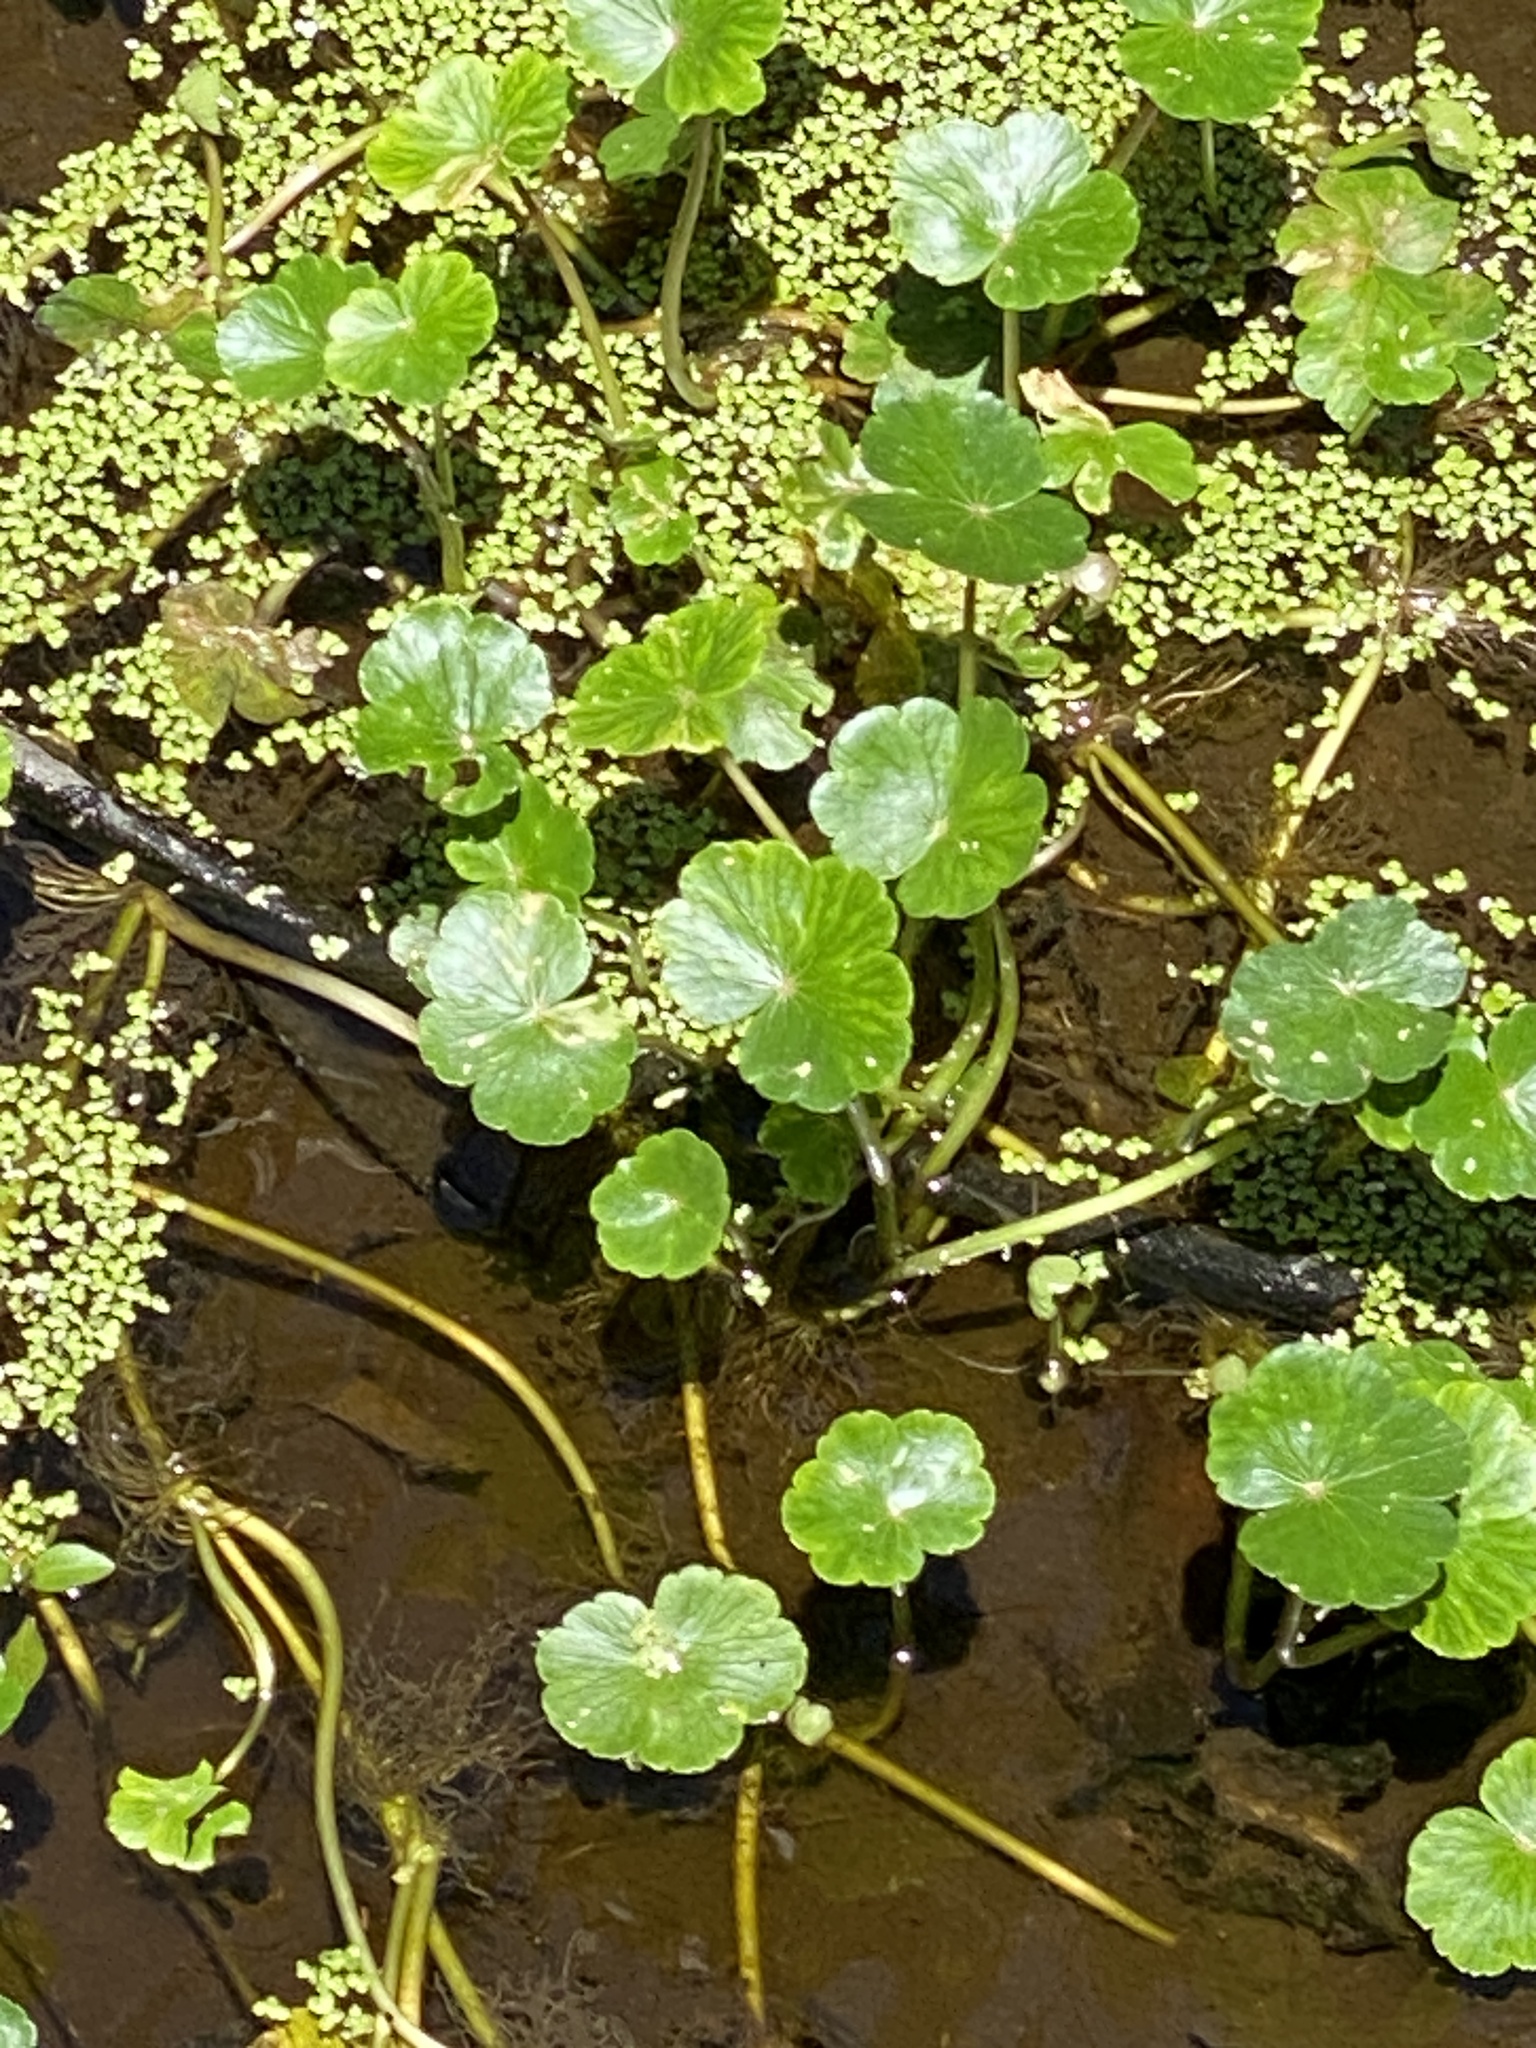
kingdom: Plantae
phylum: Tracheophyta
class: Magnoliopsida
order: Apiales
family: Araliaceae
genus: Hydrocotyle
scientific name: Hydrocotyle ranunculoides
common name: Floating pennywort
